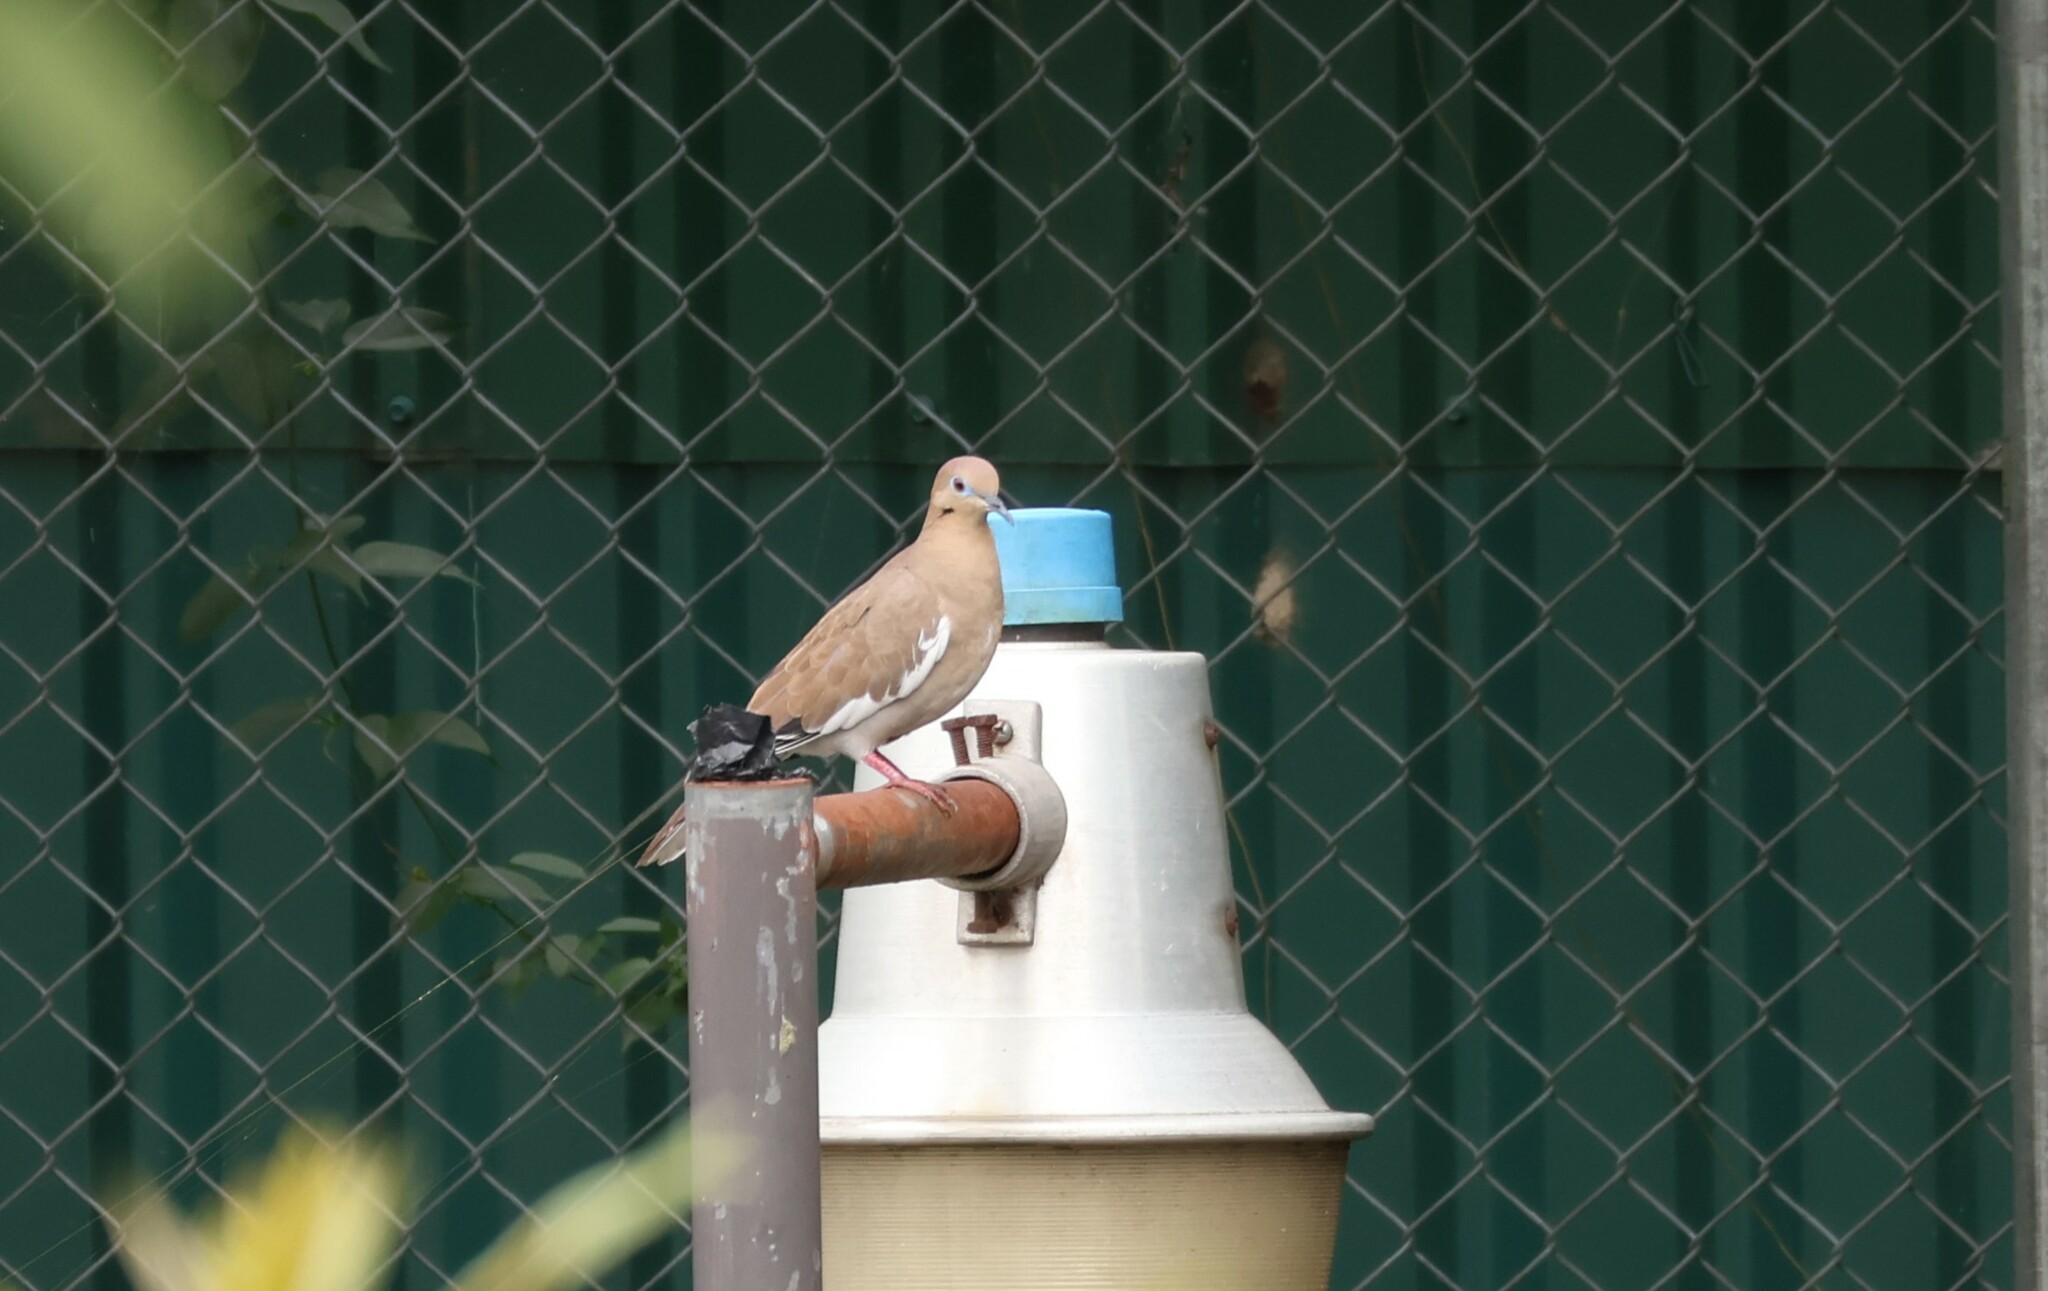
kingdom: Animalia
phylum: Chordata
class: Aves
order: Columbiformes
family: Columbidae
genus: Zenaida
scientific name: Zenaida asiatica
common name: White-winged dove
